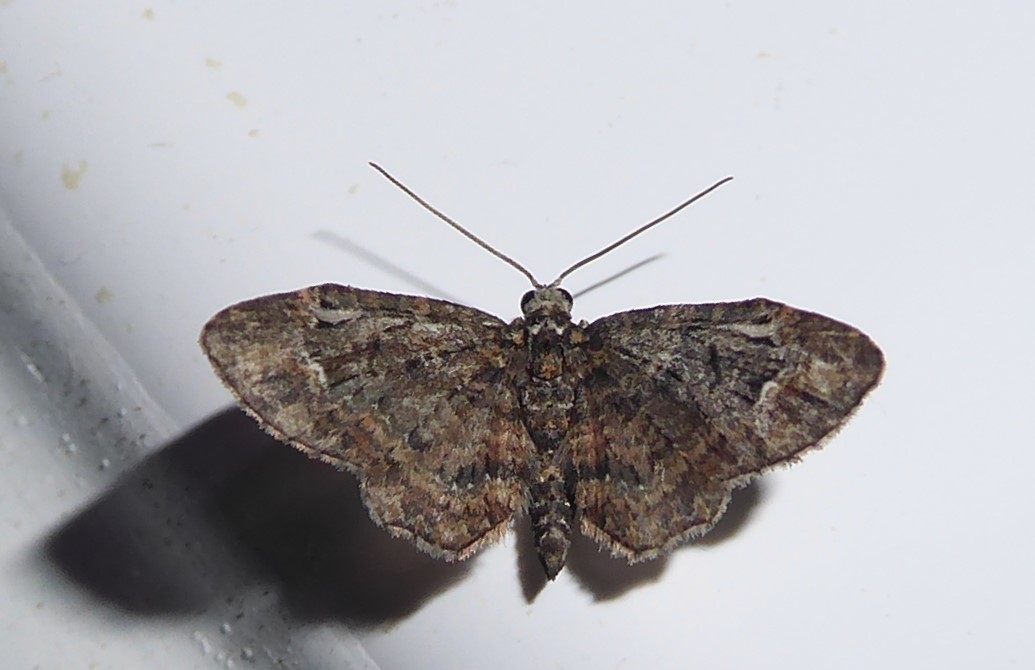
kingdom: Animalia
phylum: Arthropoda
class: Insecta
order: Lepidoptera
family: Geometridae
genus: Pasiphilodes
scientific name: Pasiphilodes testulata
